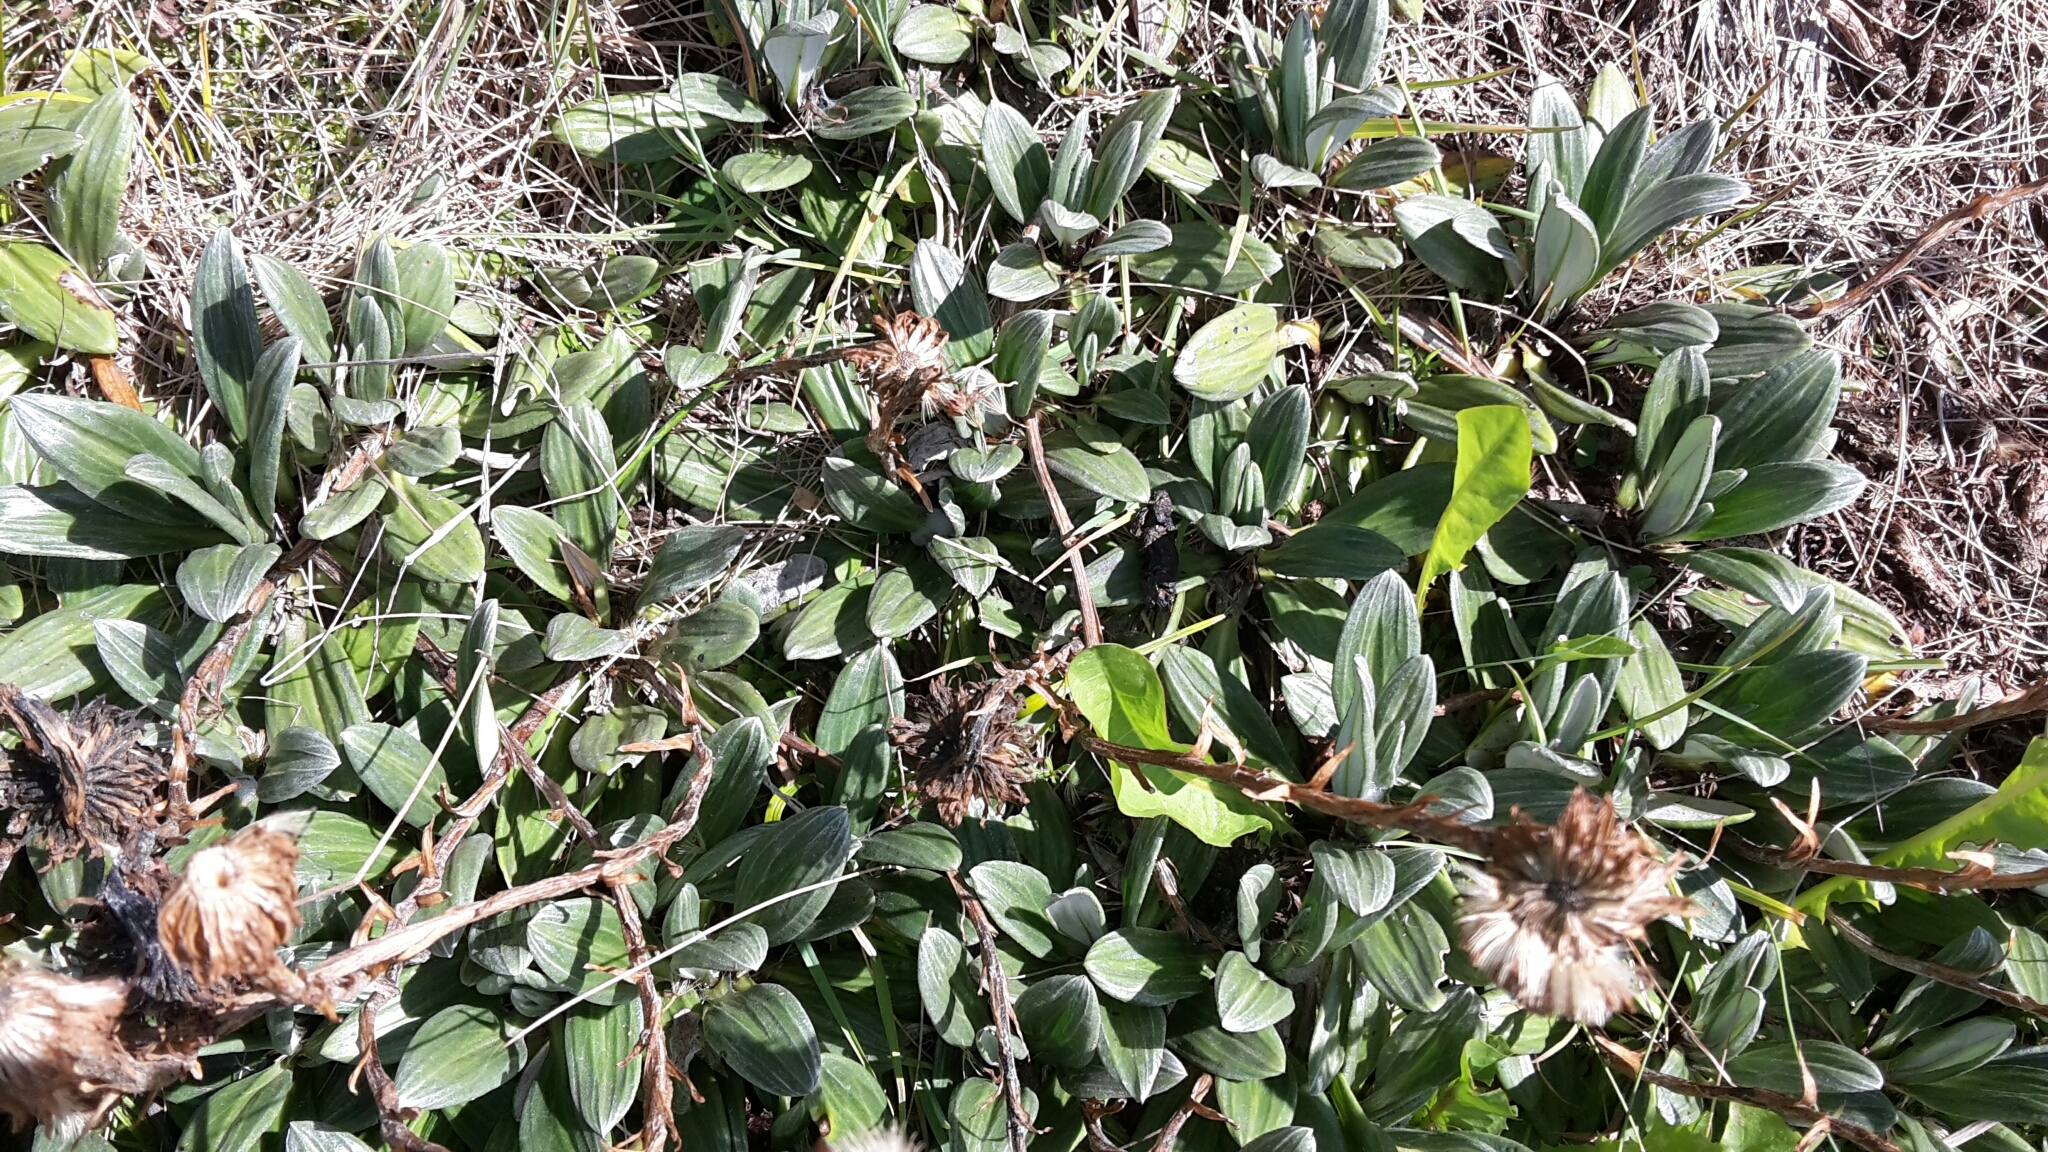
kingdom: Plantae
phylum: Tracheophyta
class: Magnoliopsida
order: Asterales
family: Asteraceae
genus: Celmisia
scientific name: Celmisia haastii
